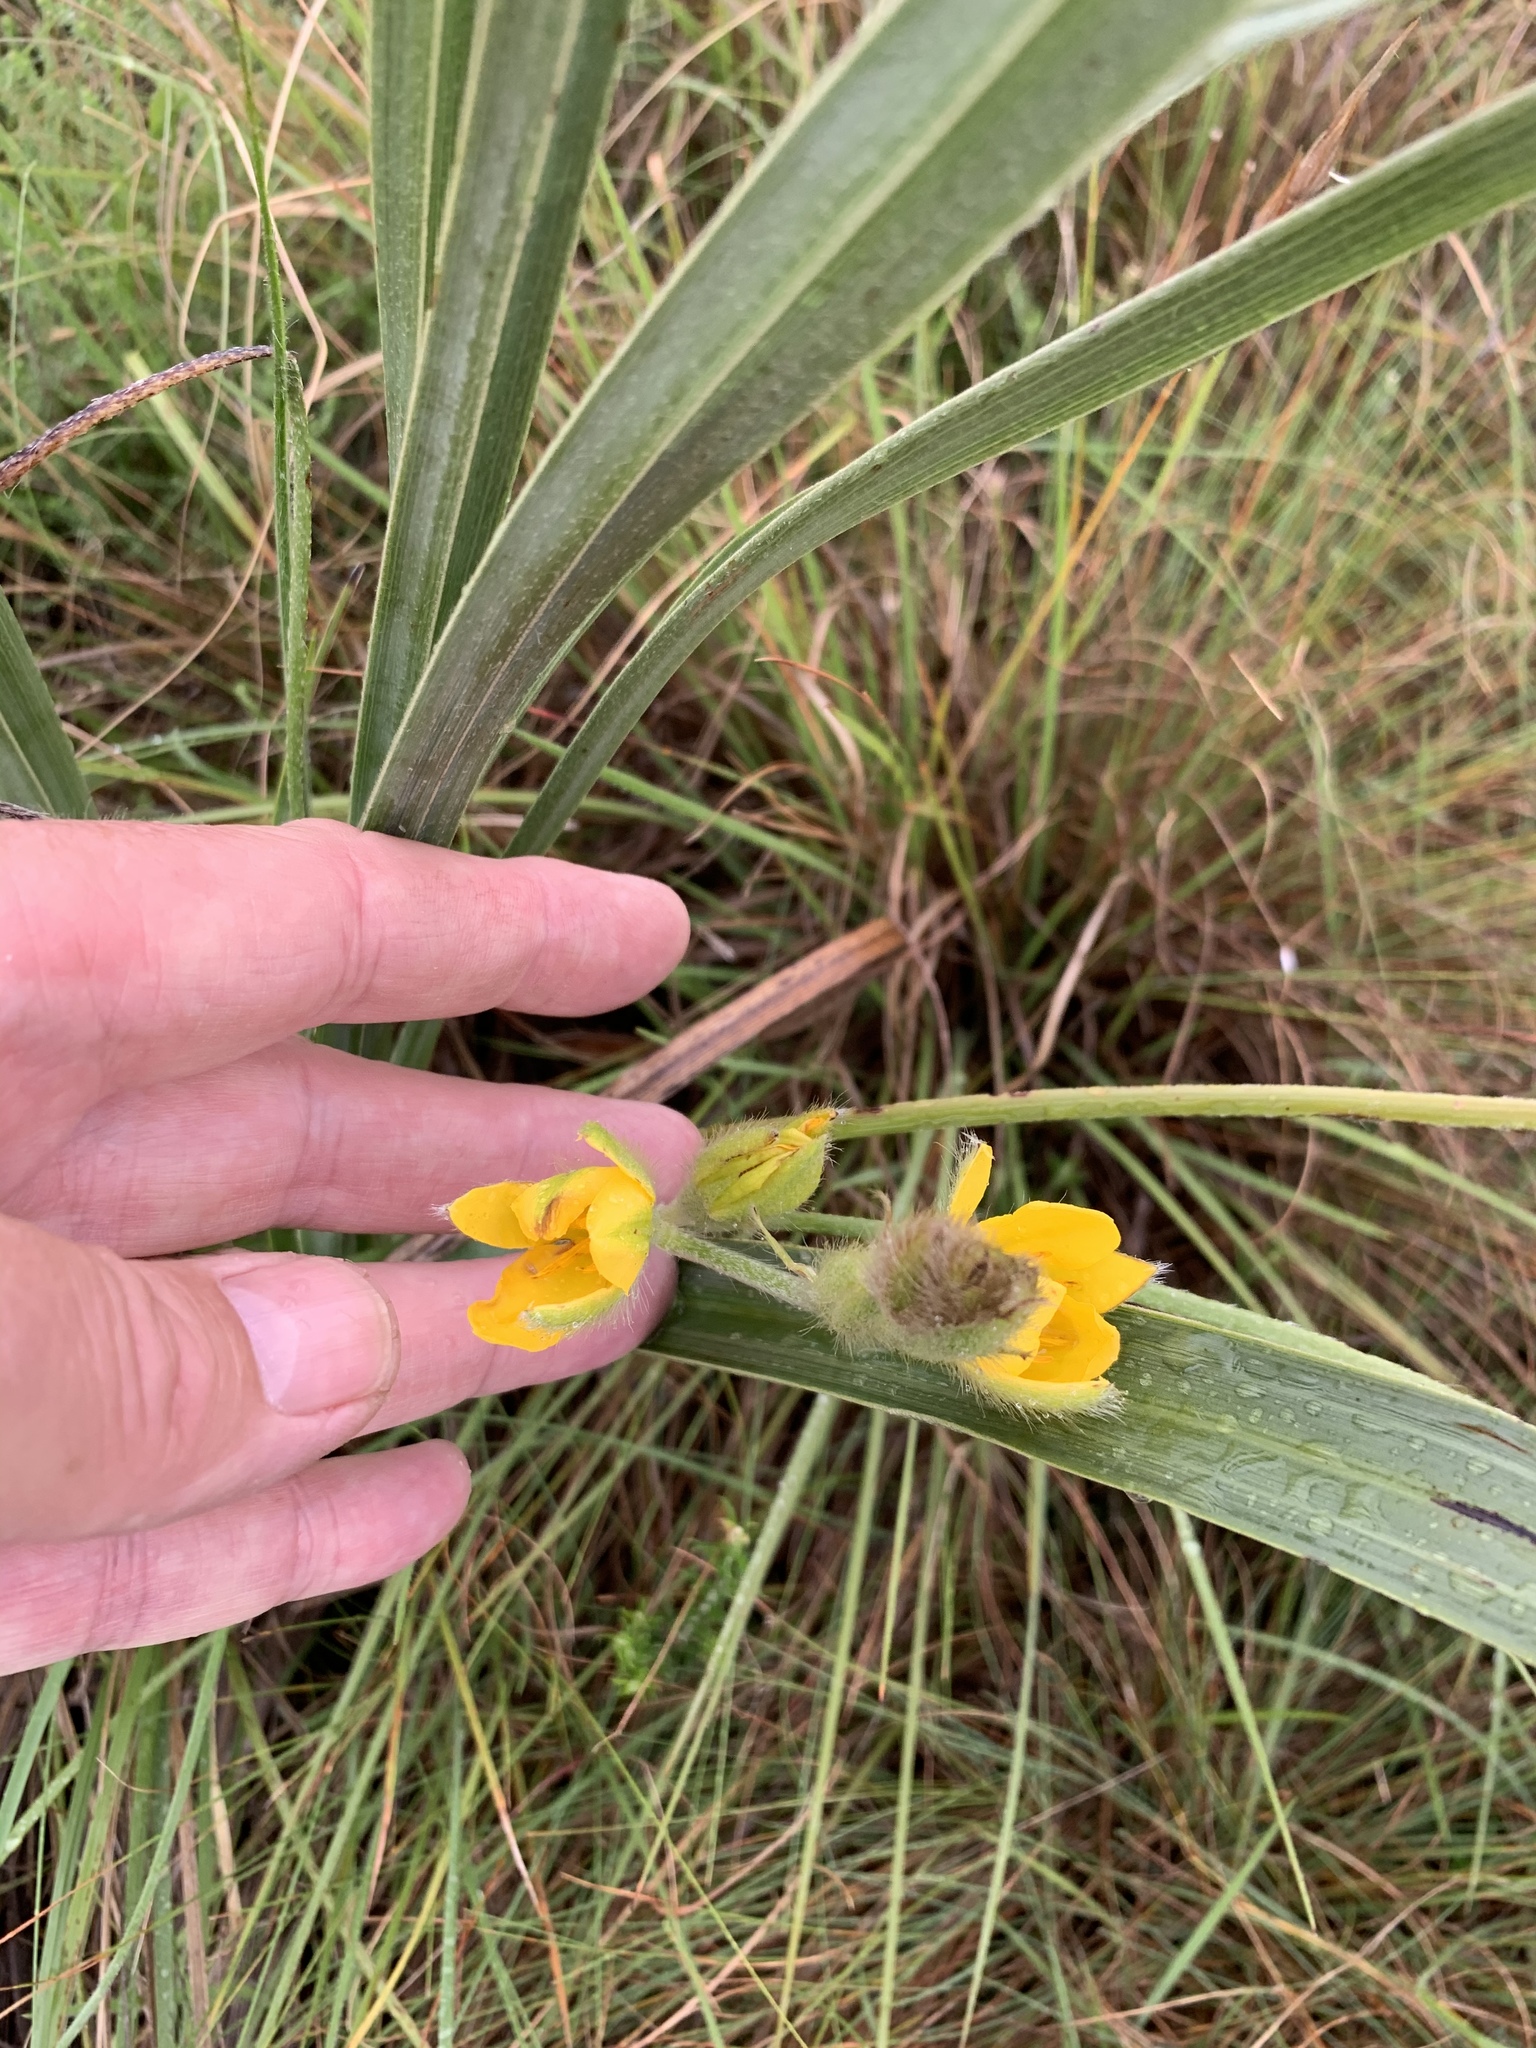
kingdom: Plantae
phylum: Tracheophyta
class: Liliopsida
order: Asparagales
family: Hypoxidaceae
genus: Hypoxis
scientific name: Hypoxis rigidula
